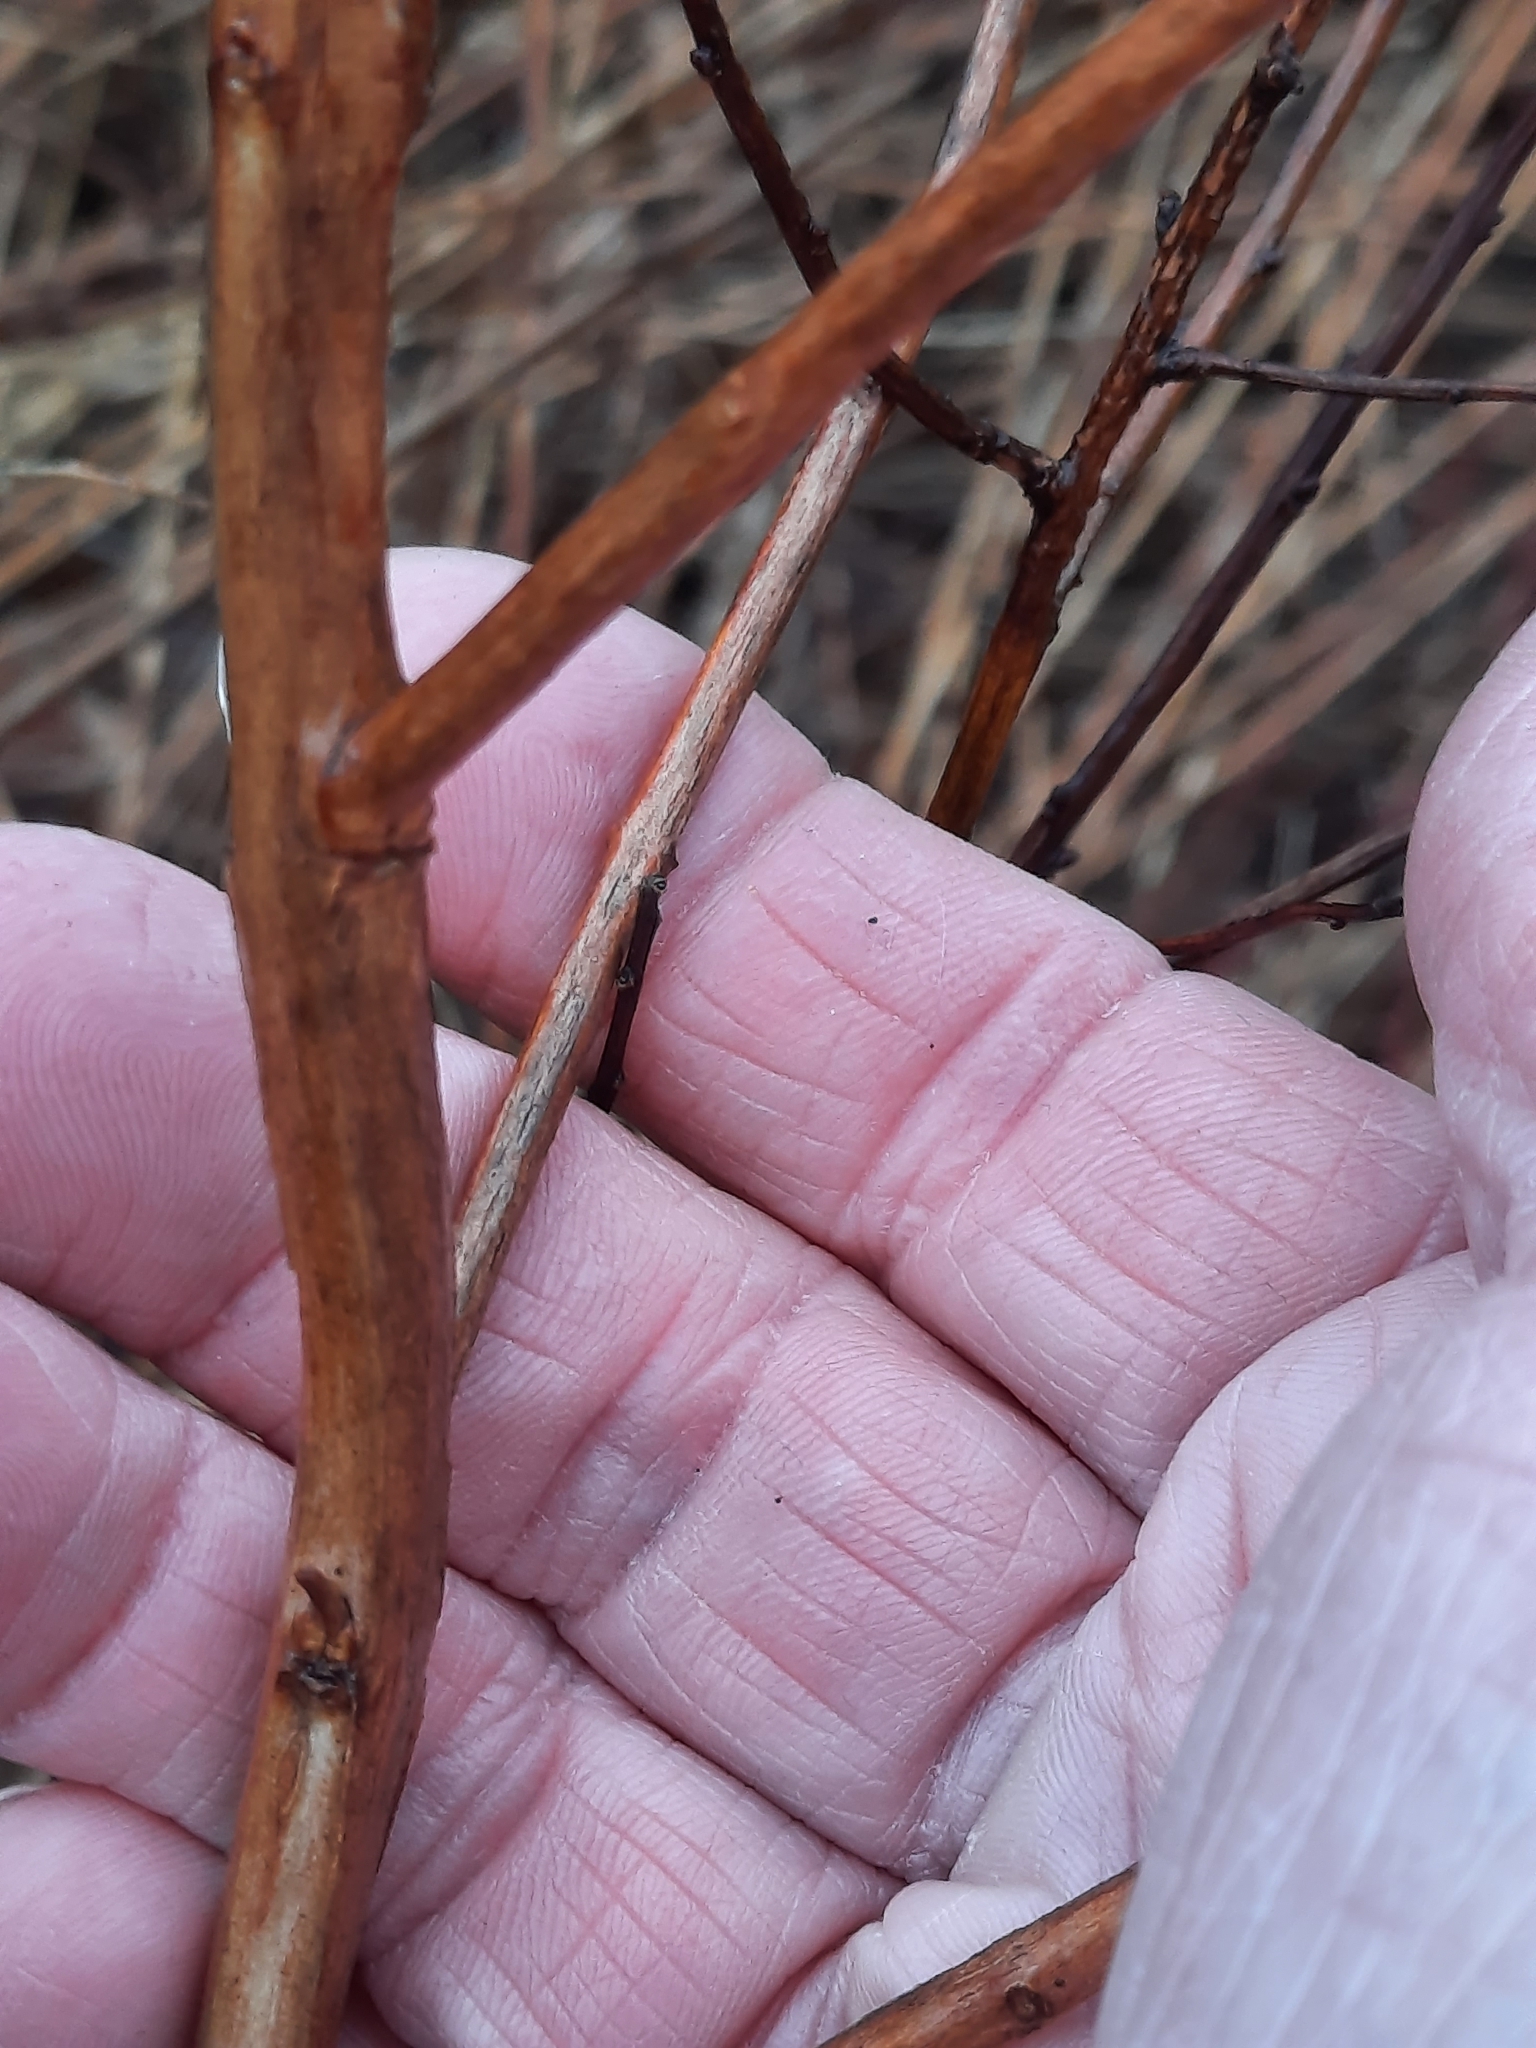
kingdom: Plantae
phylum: Tracheophyta
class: Magnoliopsida
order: Myrtales
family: Lythraceae
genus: Lythrum
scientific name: Lythrum salicaria
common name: Purple loosestrife
